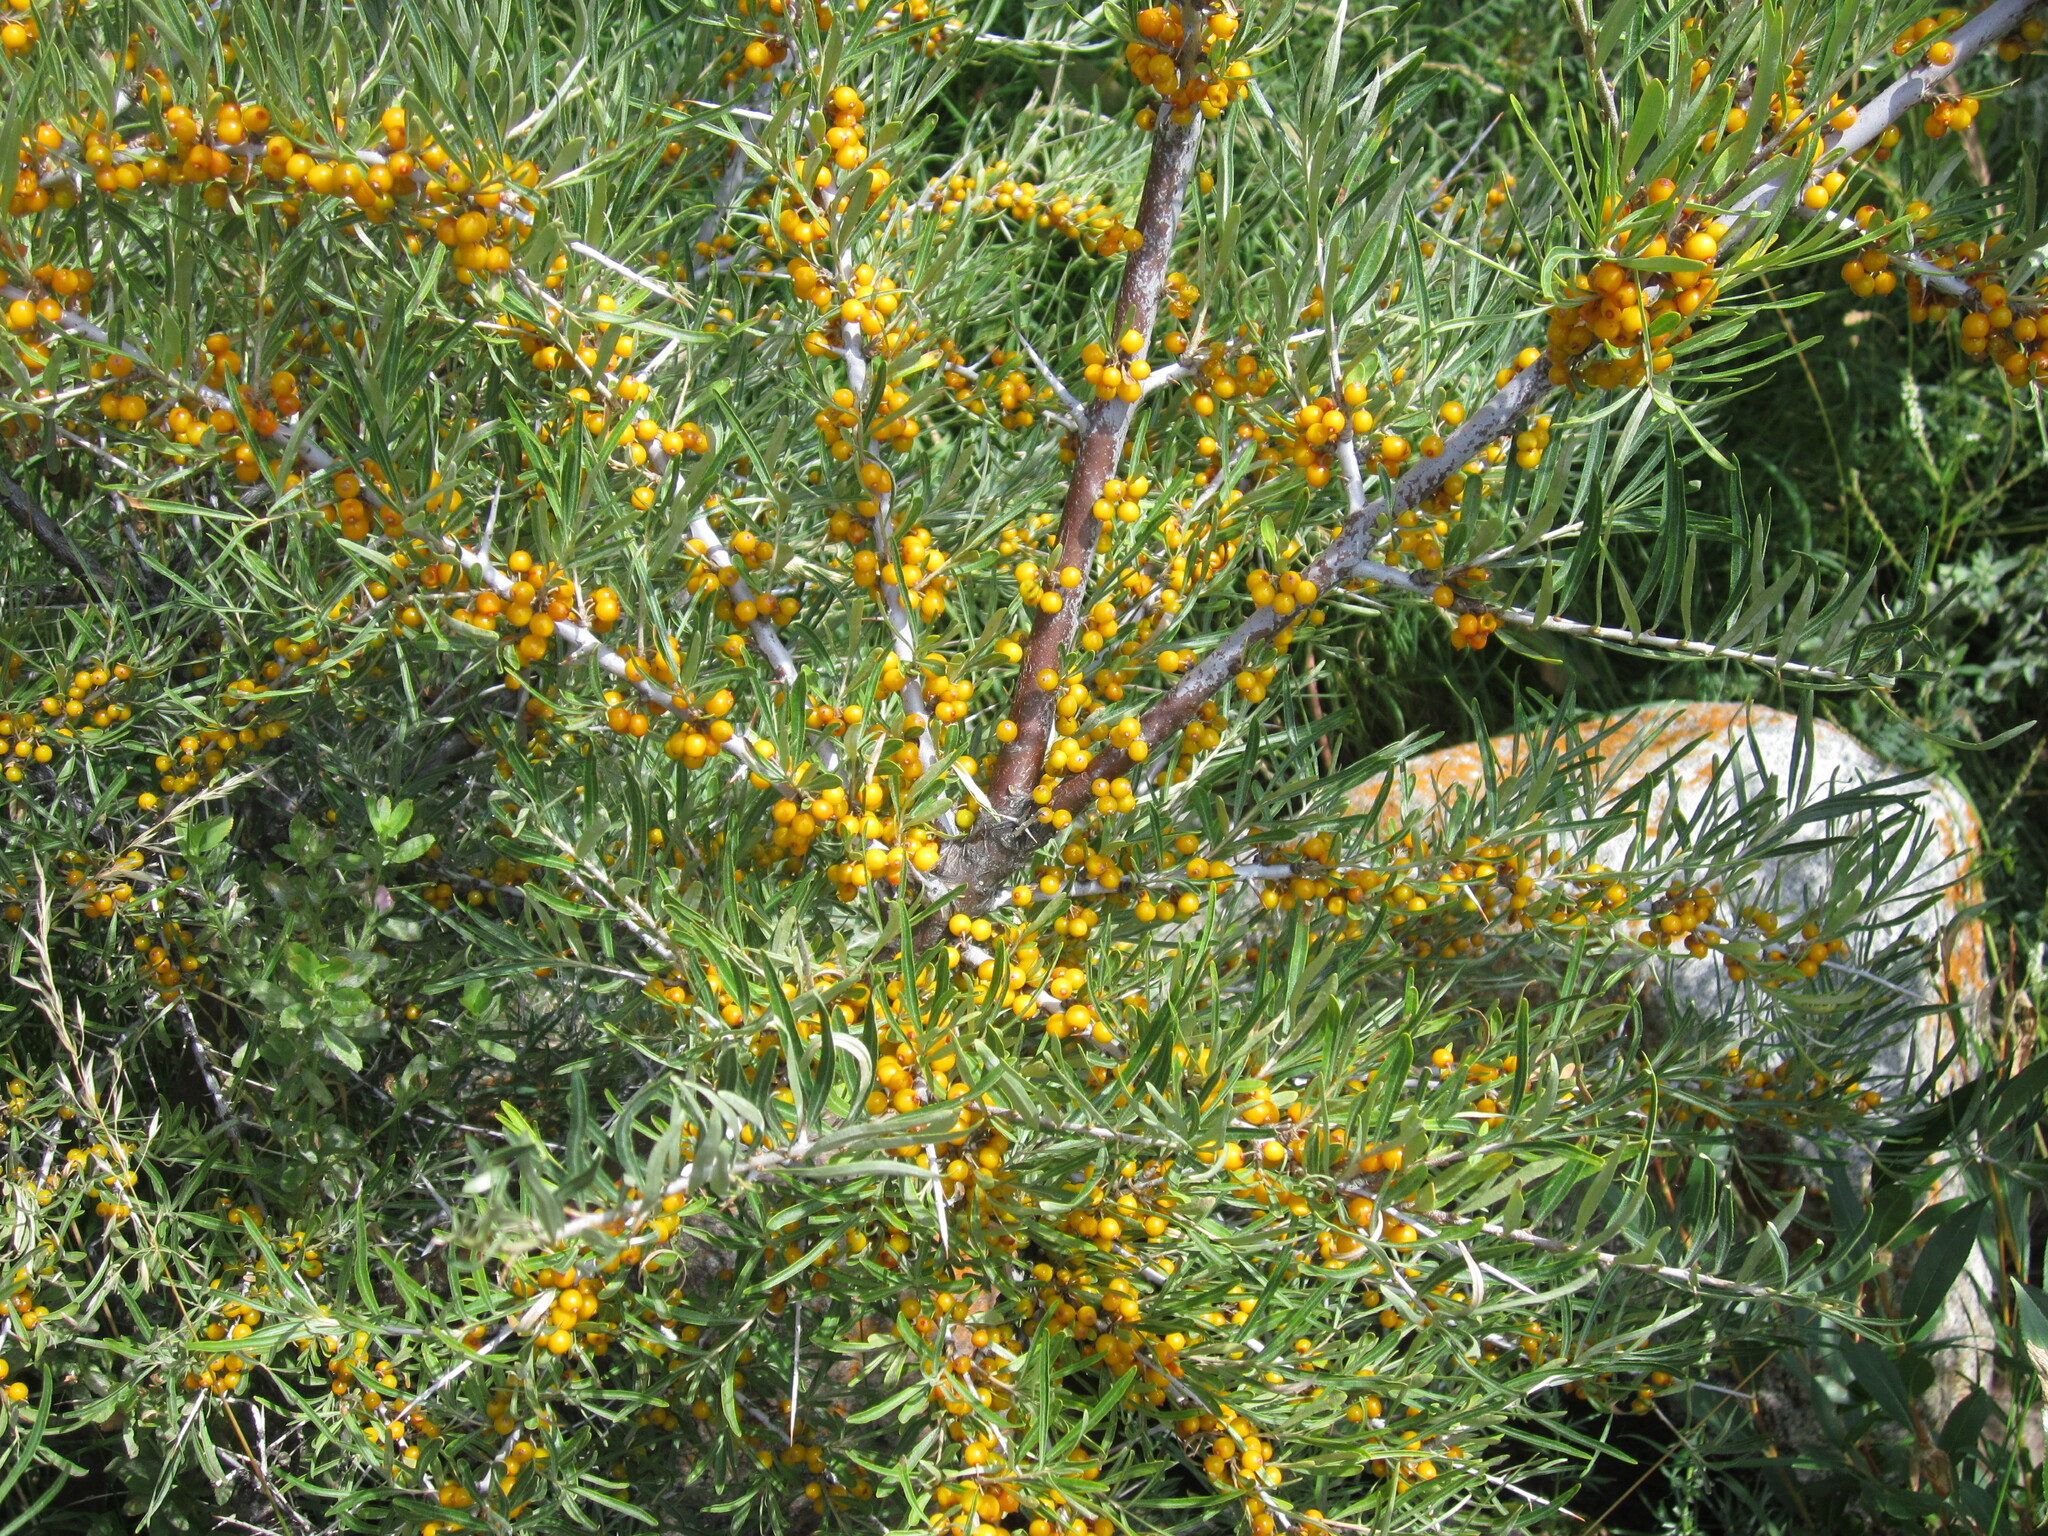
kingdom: Plantae
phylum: Tracheophyta
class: Magnoliopsida
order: Rosales
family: Elaeagnaceae
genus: Hippophae
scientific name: Hippophae rhamnoides
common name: Sea-buckthorn
